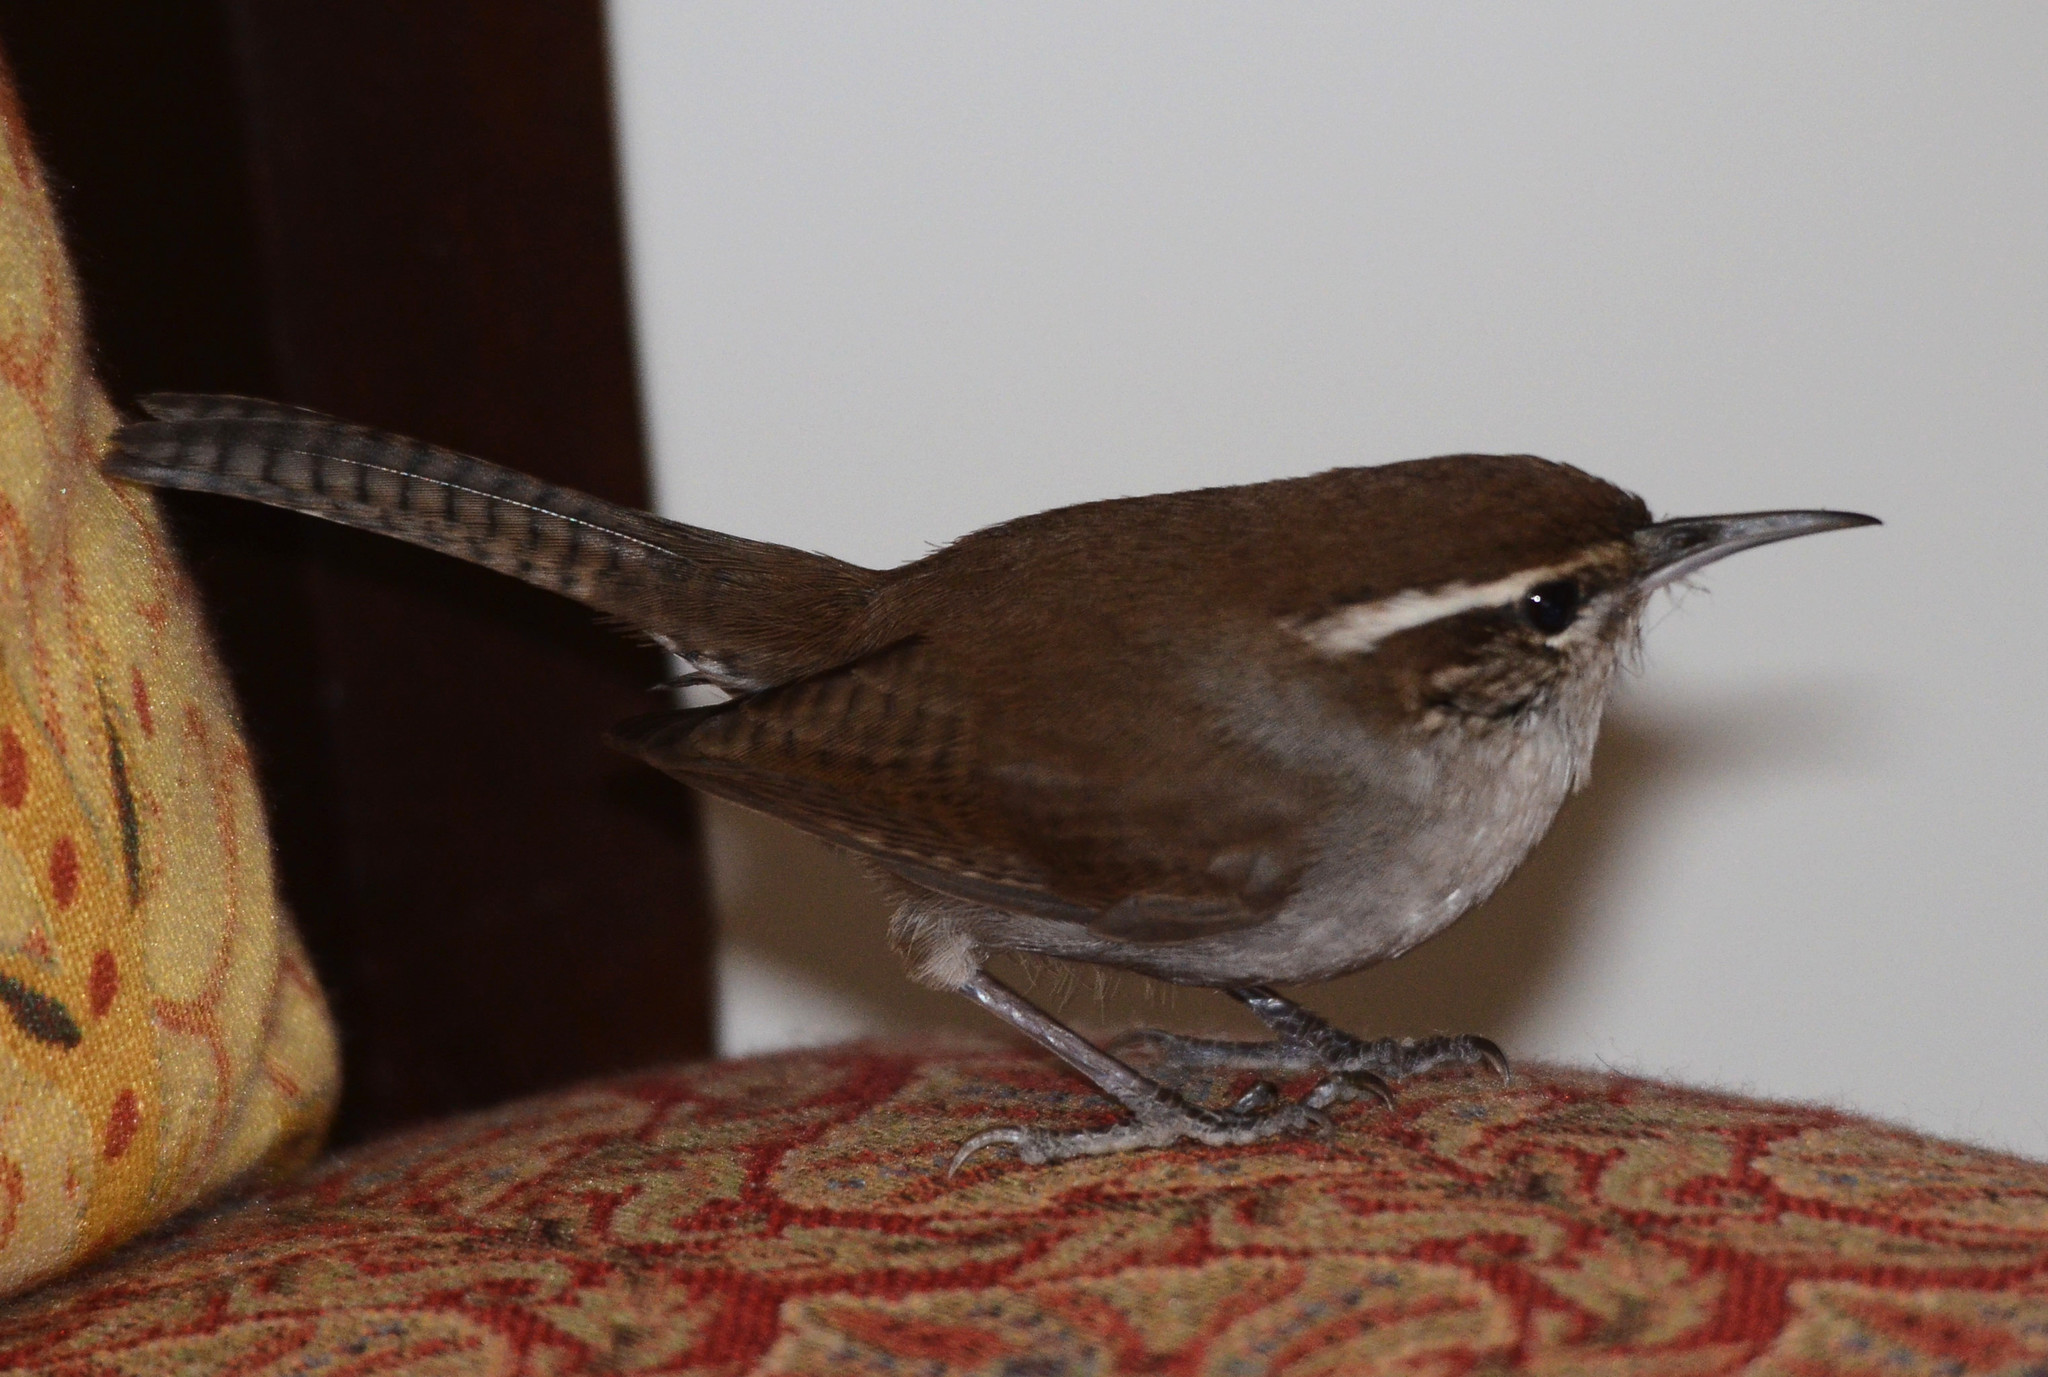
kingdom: Animalia
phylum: Chordata
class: Aves
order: Passeriformes
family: Troglodytidae
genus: Thryomanes
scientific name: Thryomanes bewickii
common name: Bewick's wren
